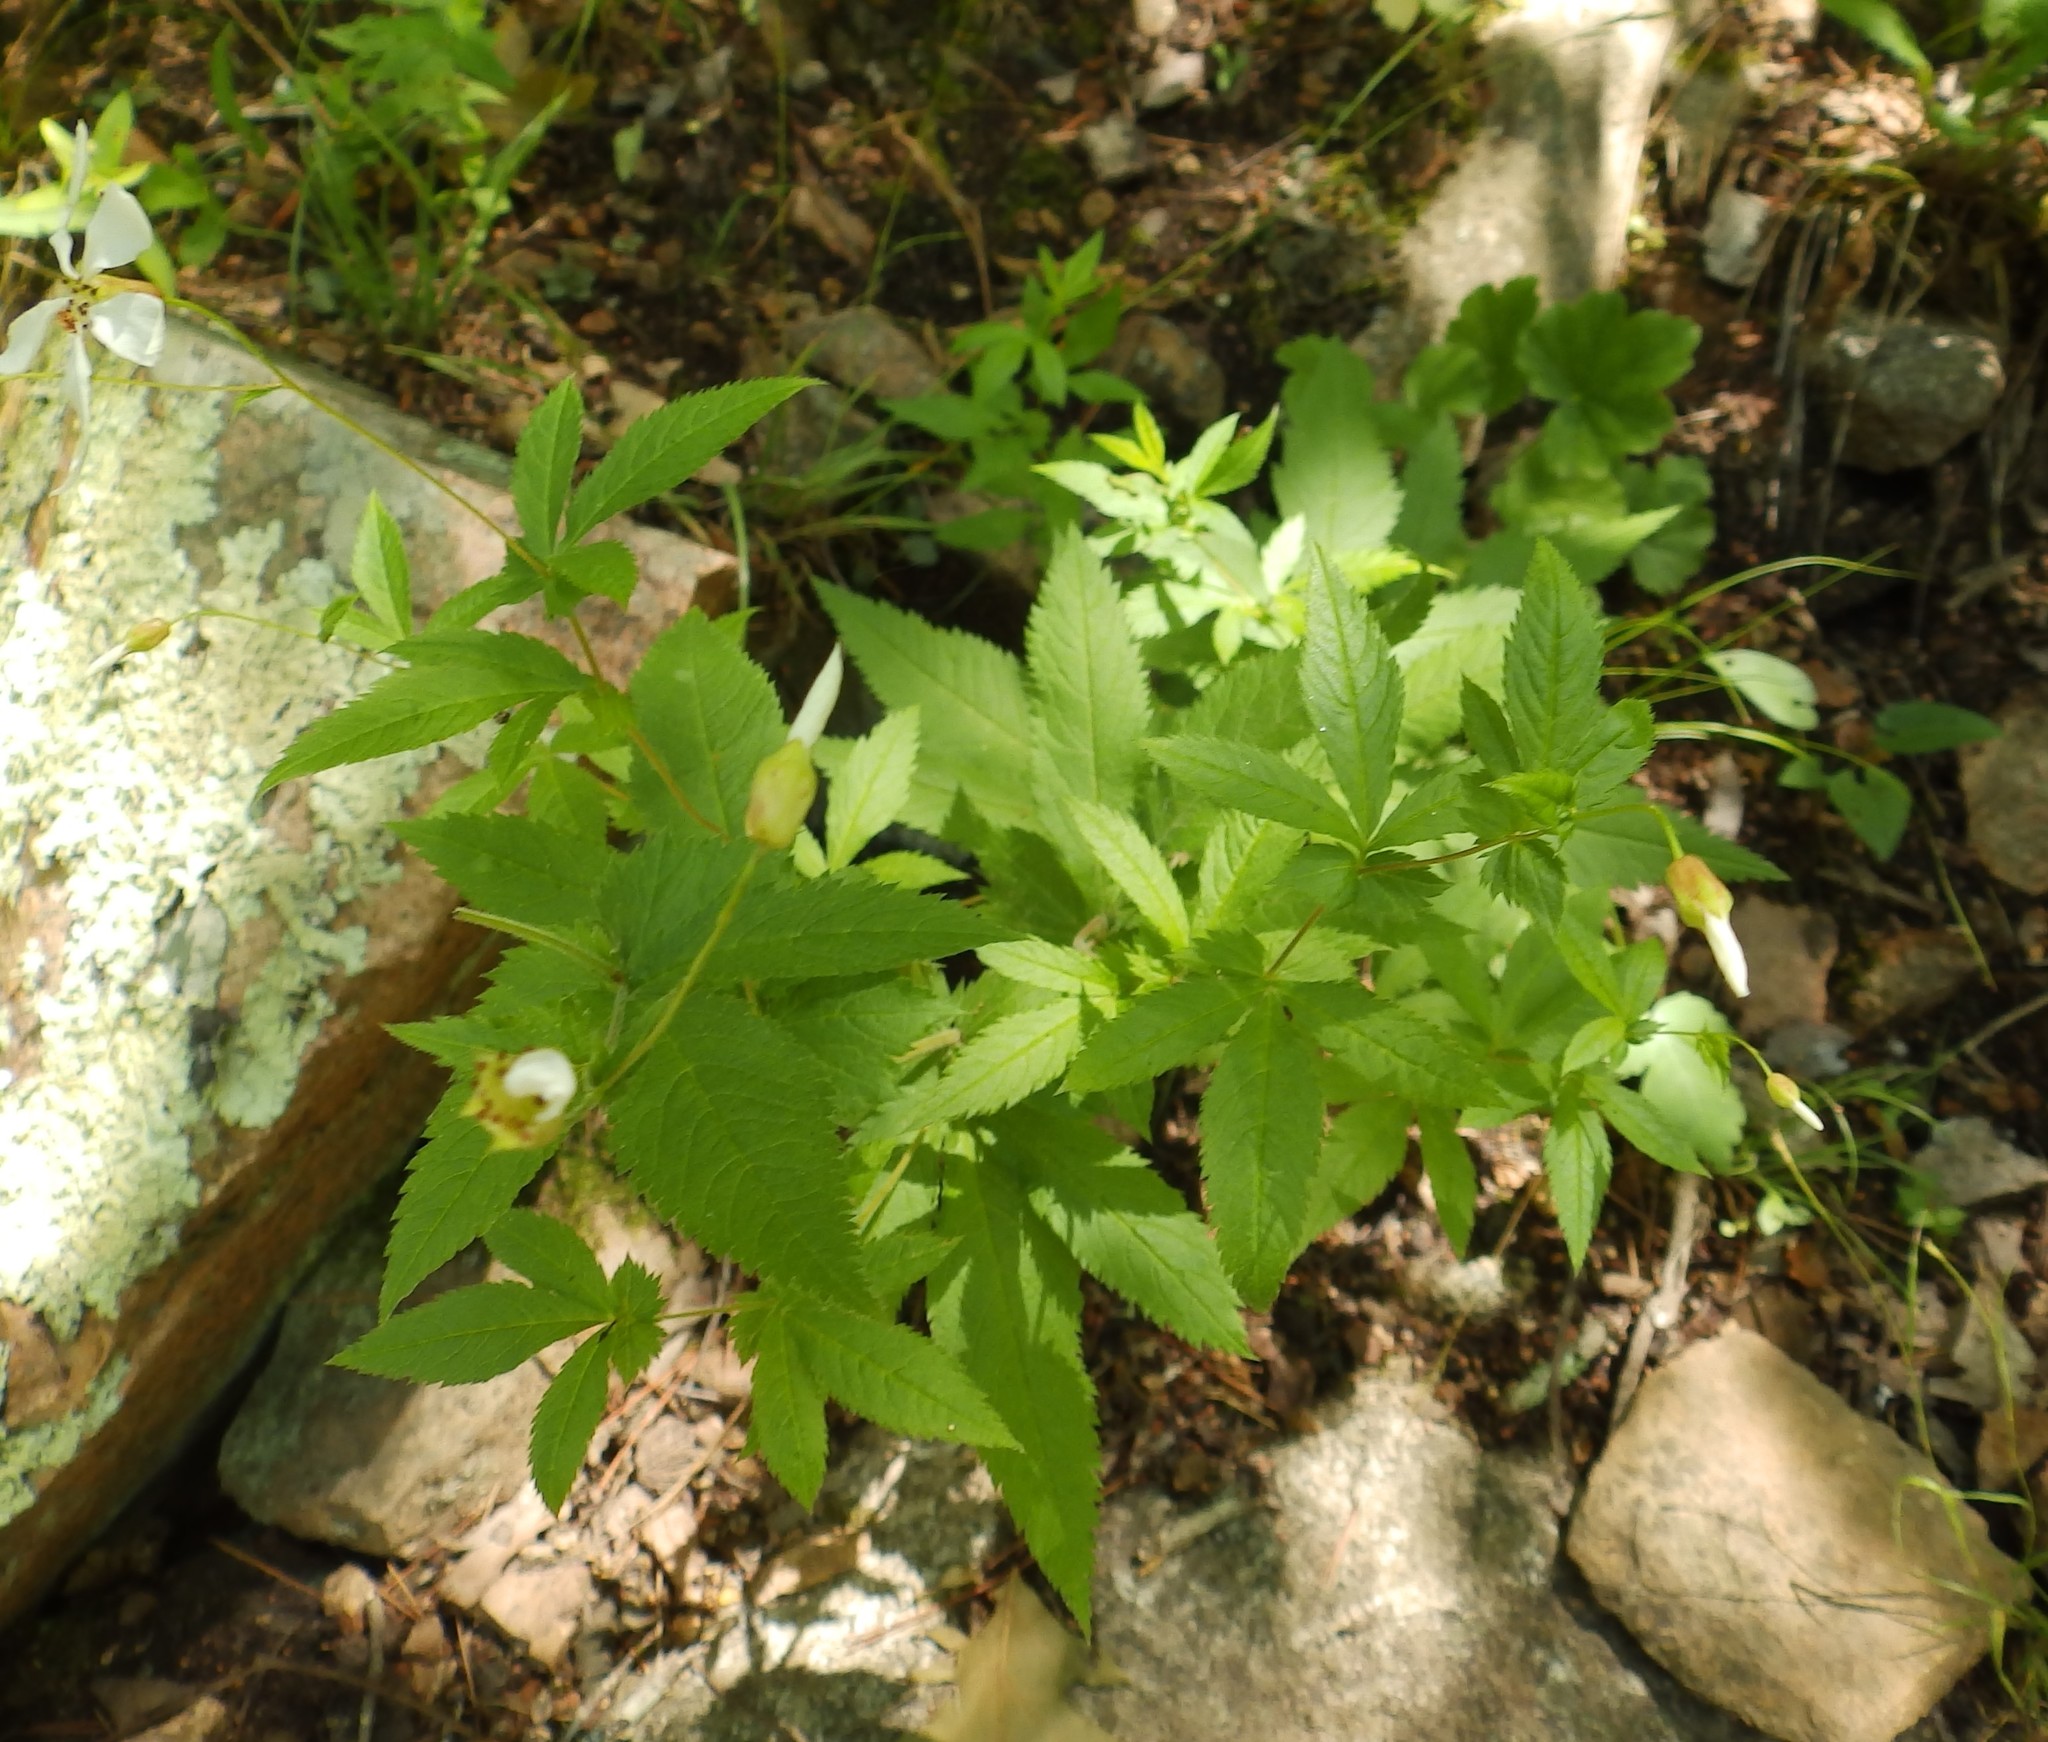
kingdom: Plantae
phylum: Tracheophyta
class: Magnoliopsida
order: Rosales
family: Rosaceae
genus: Gillenia
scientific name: Gillenia stipulata
